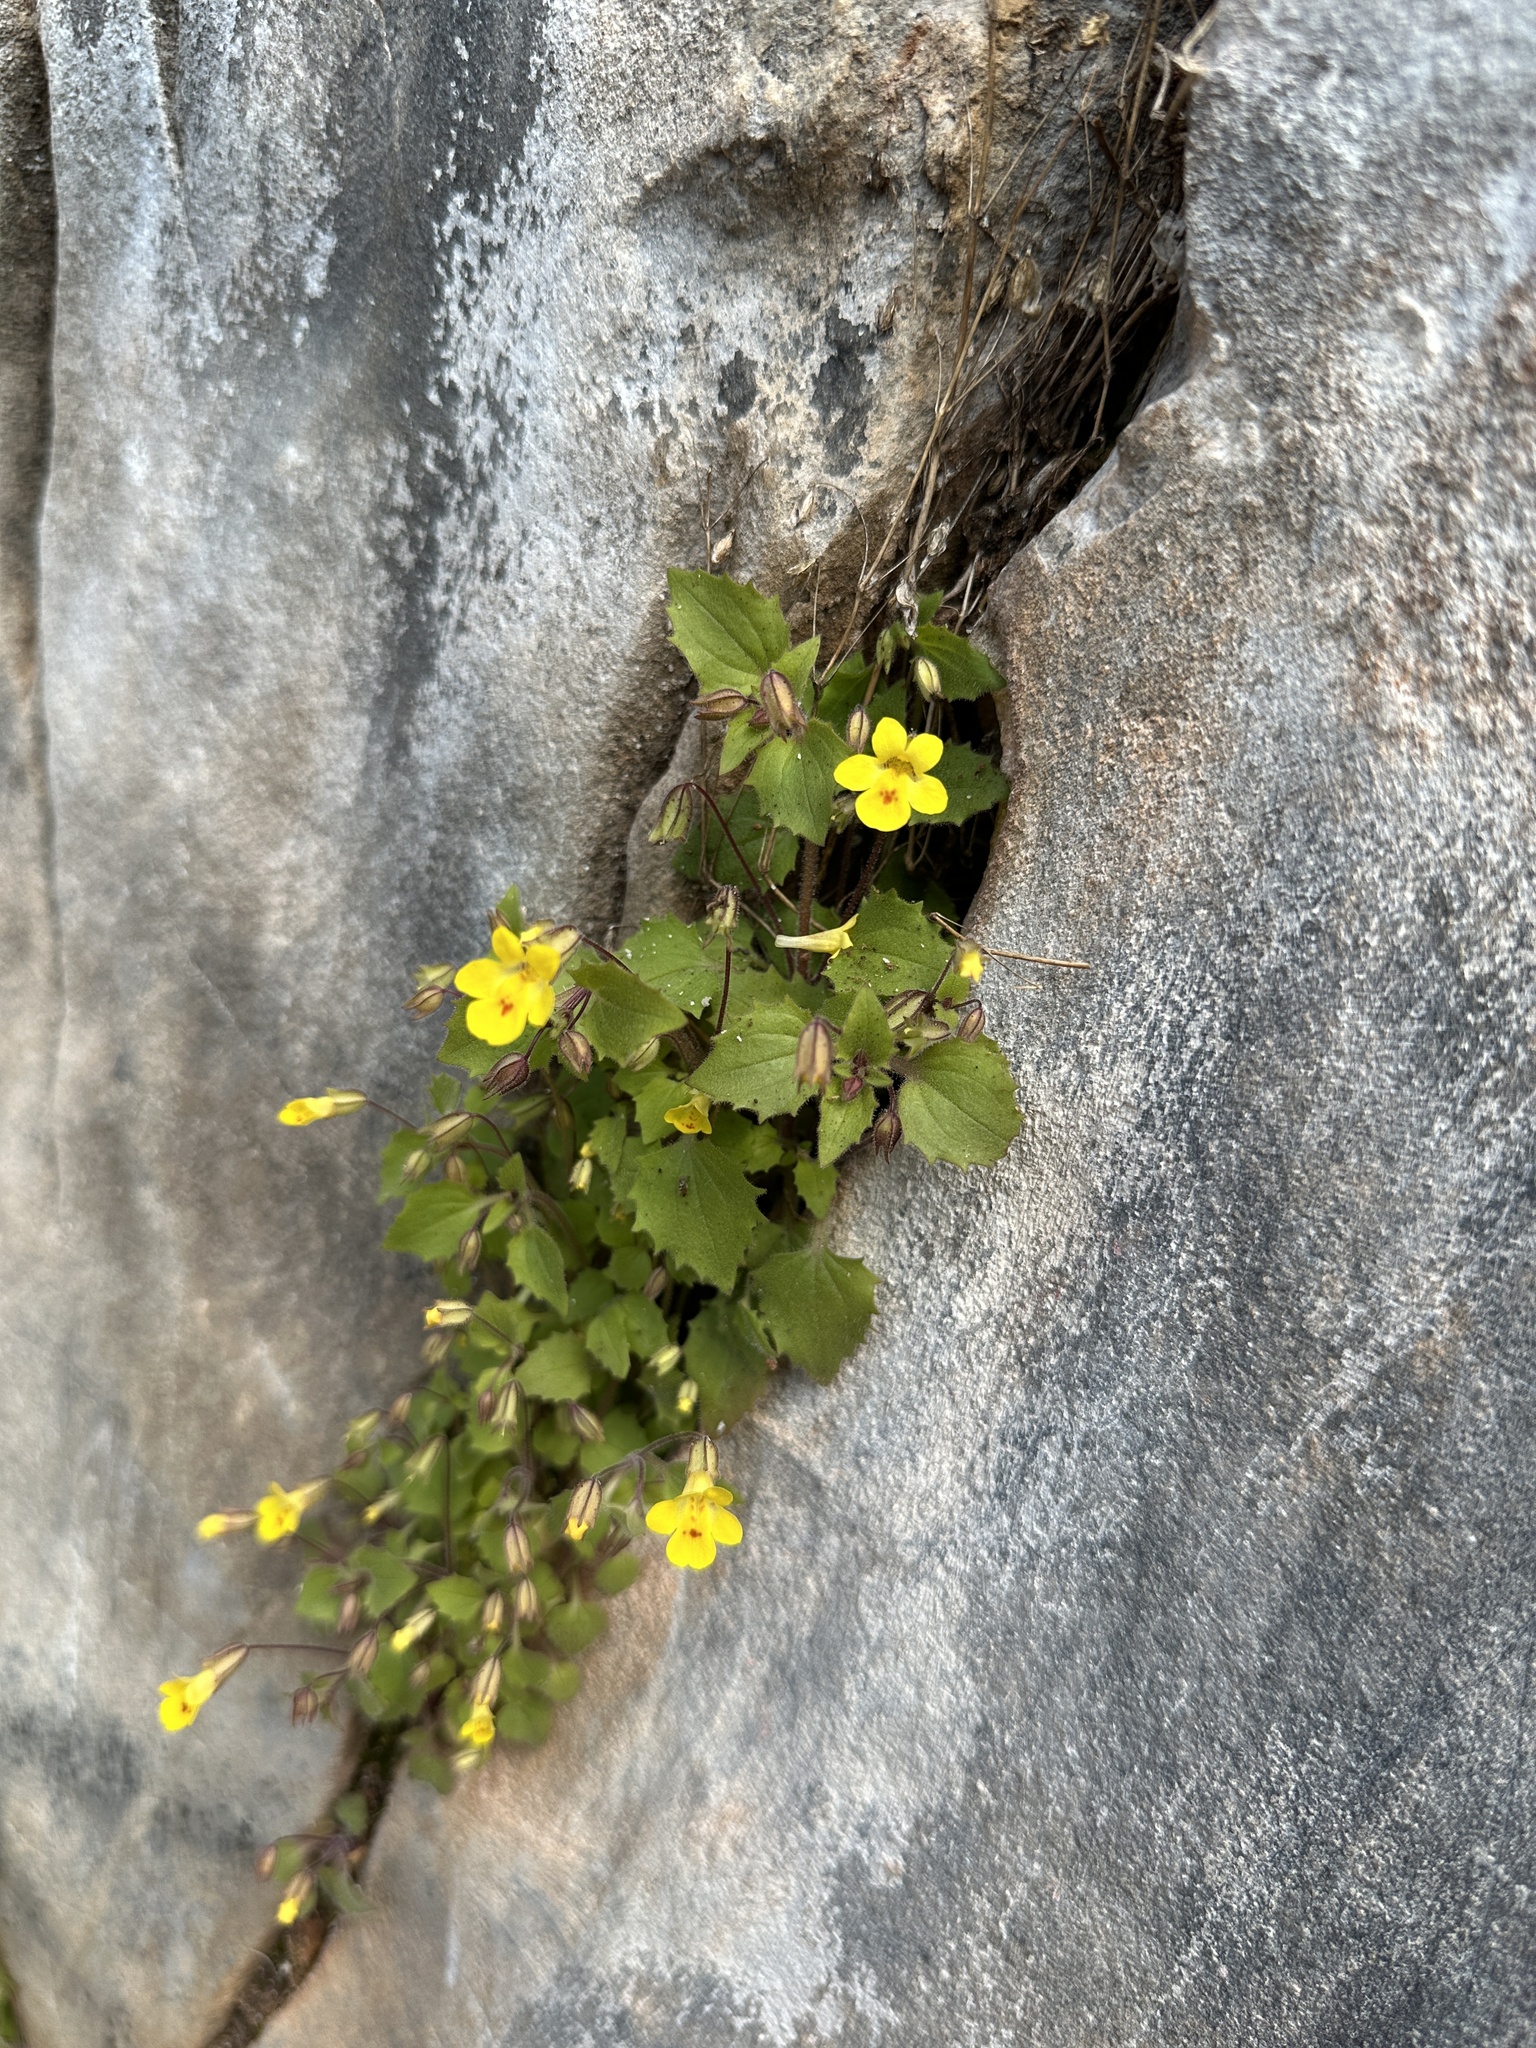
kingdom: Plantae
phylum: Tracheophyta
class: Magnoliopsida
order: Lamiales
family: Phrymaceae
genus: Erythranthe
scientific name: Erythranthe marmorata
